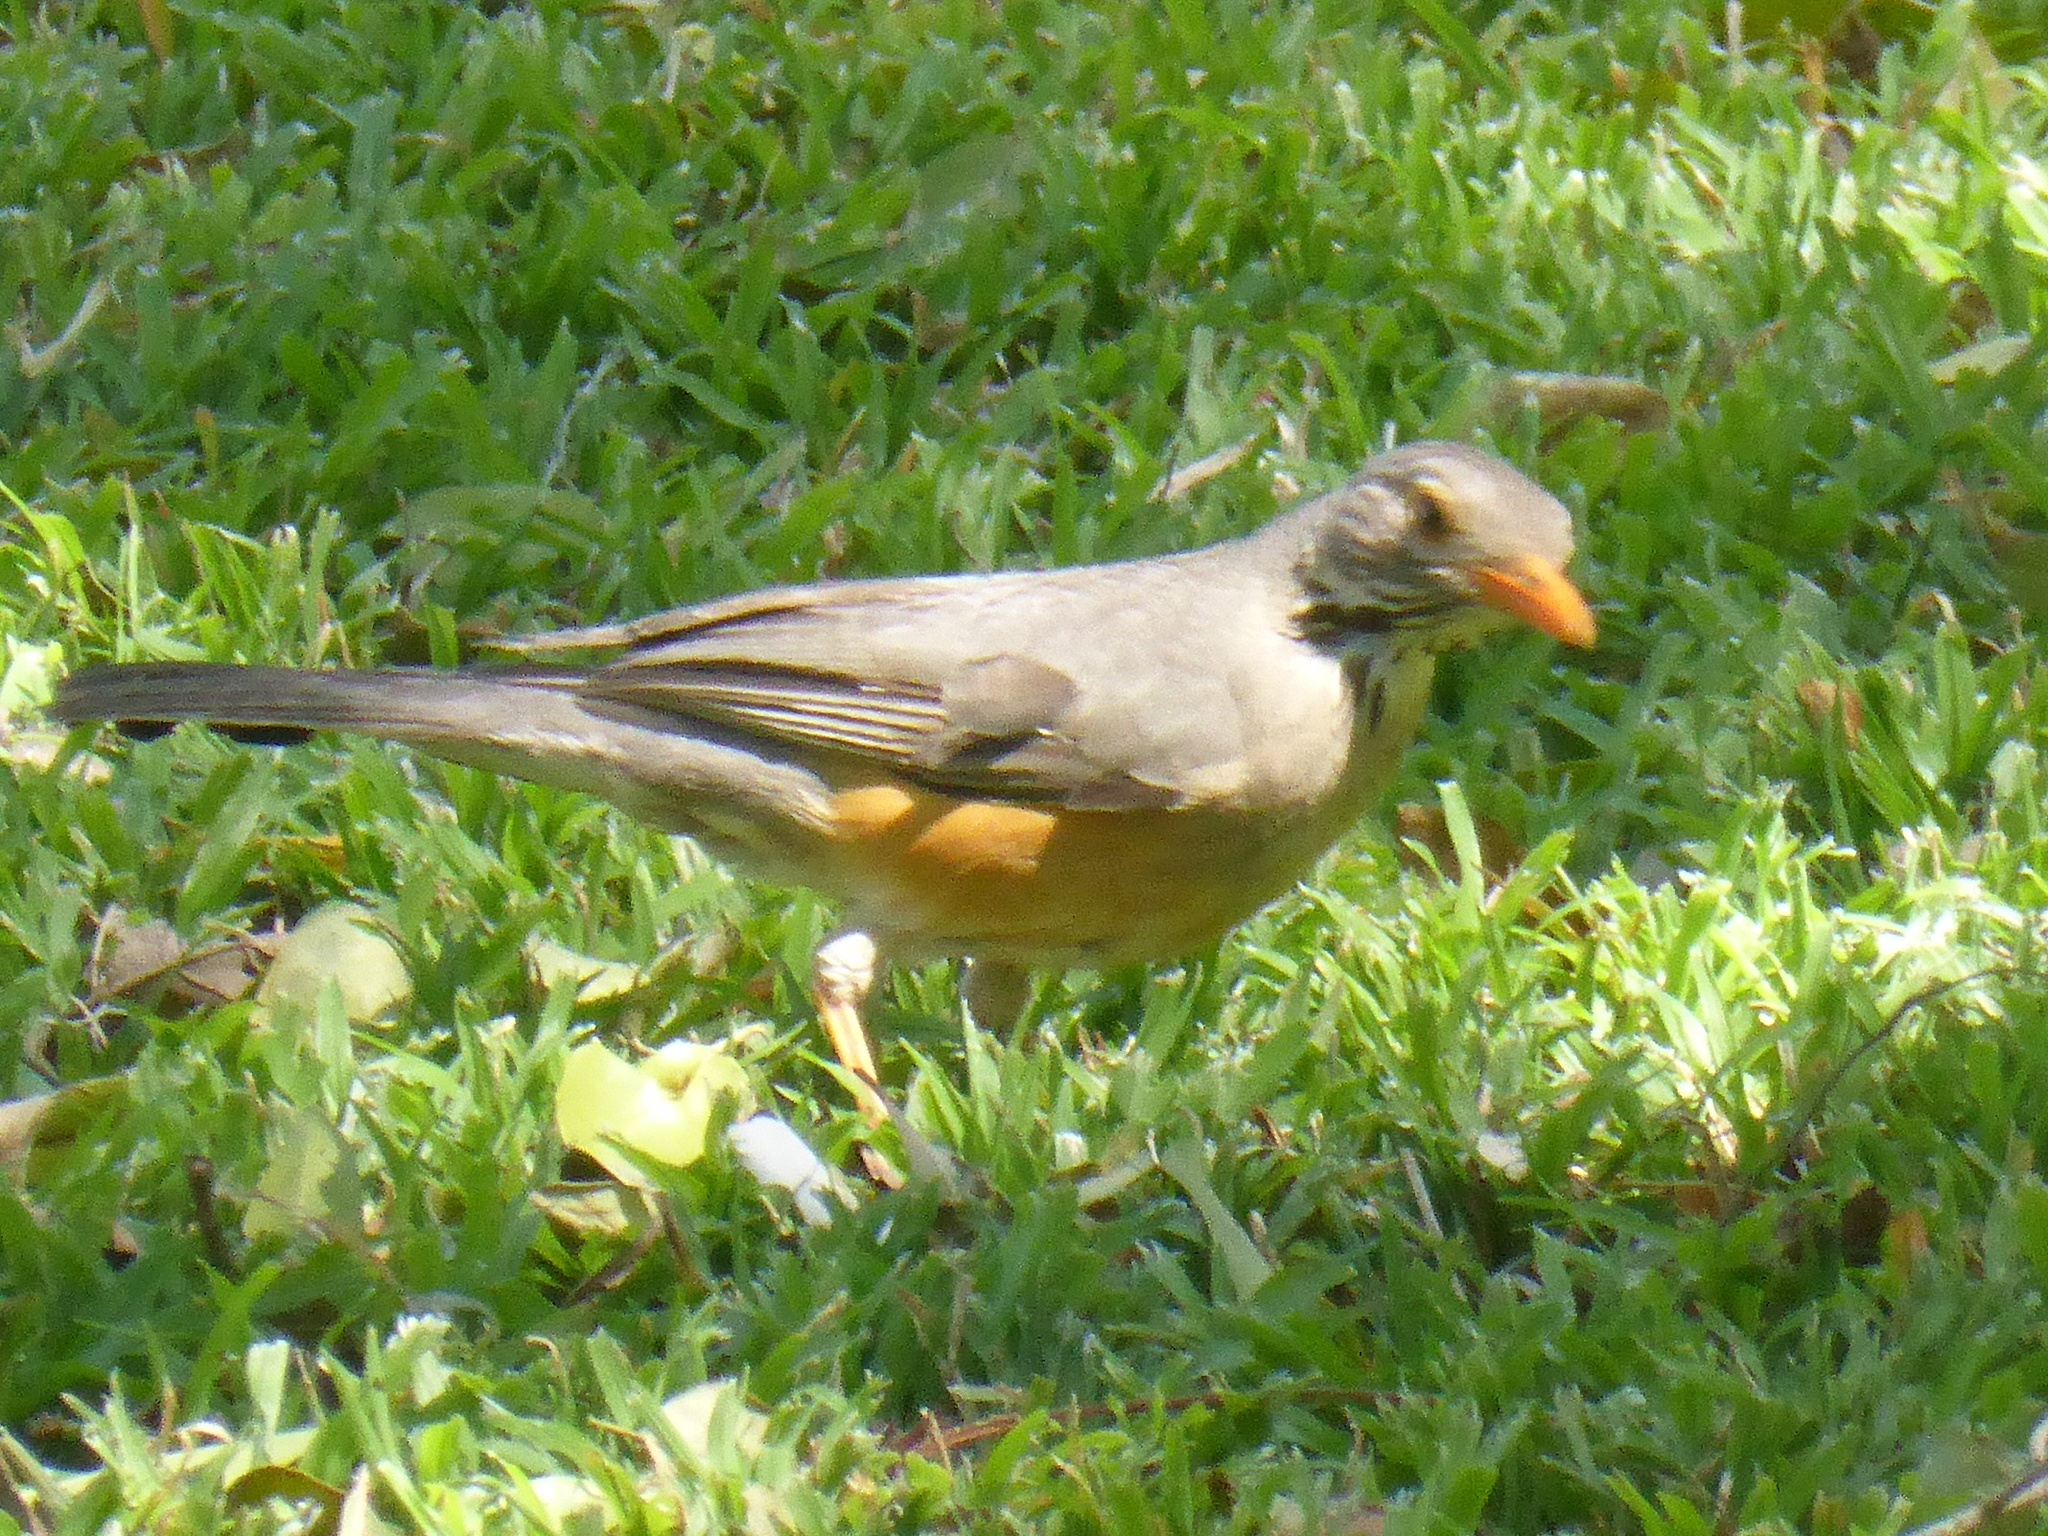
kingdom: Animalia
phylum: Chordata
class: Aves
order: Passeriformes
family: Turdidae
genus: Turdus
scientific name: Turdus libonyana
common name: Kurrichane thrush
